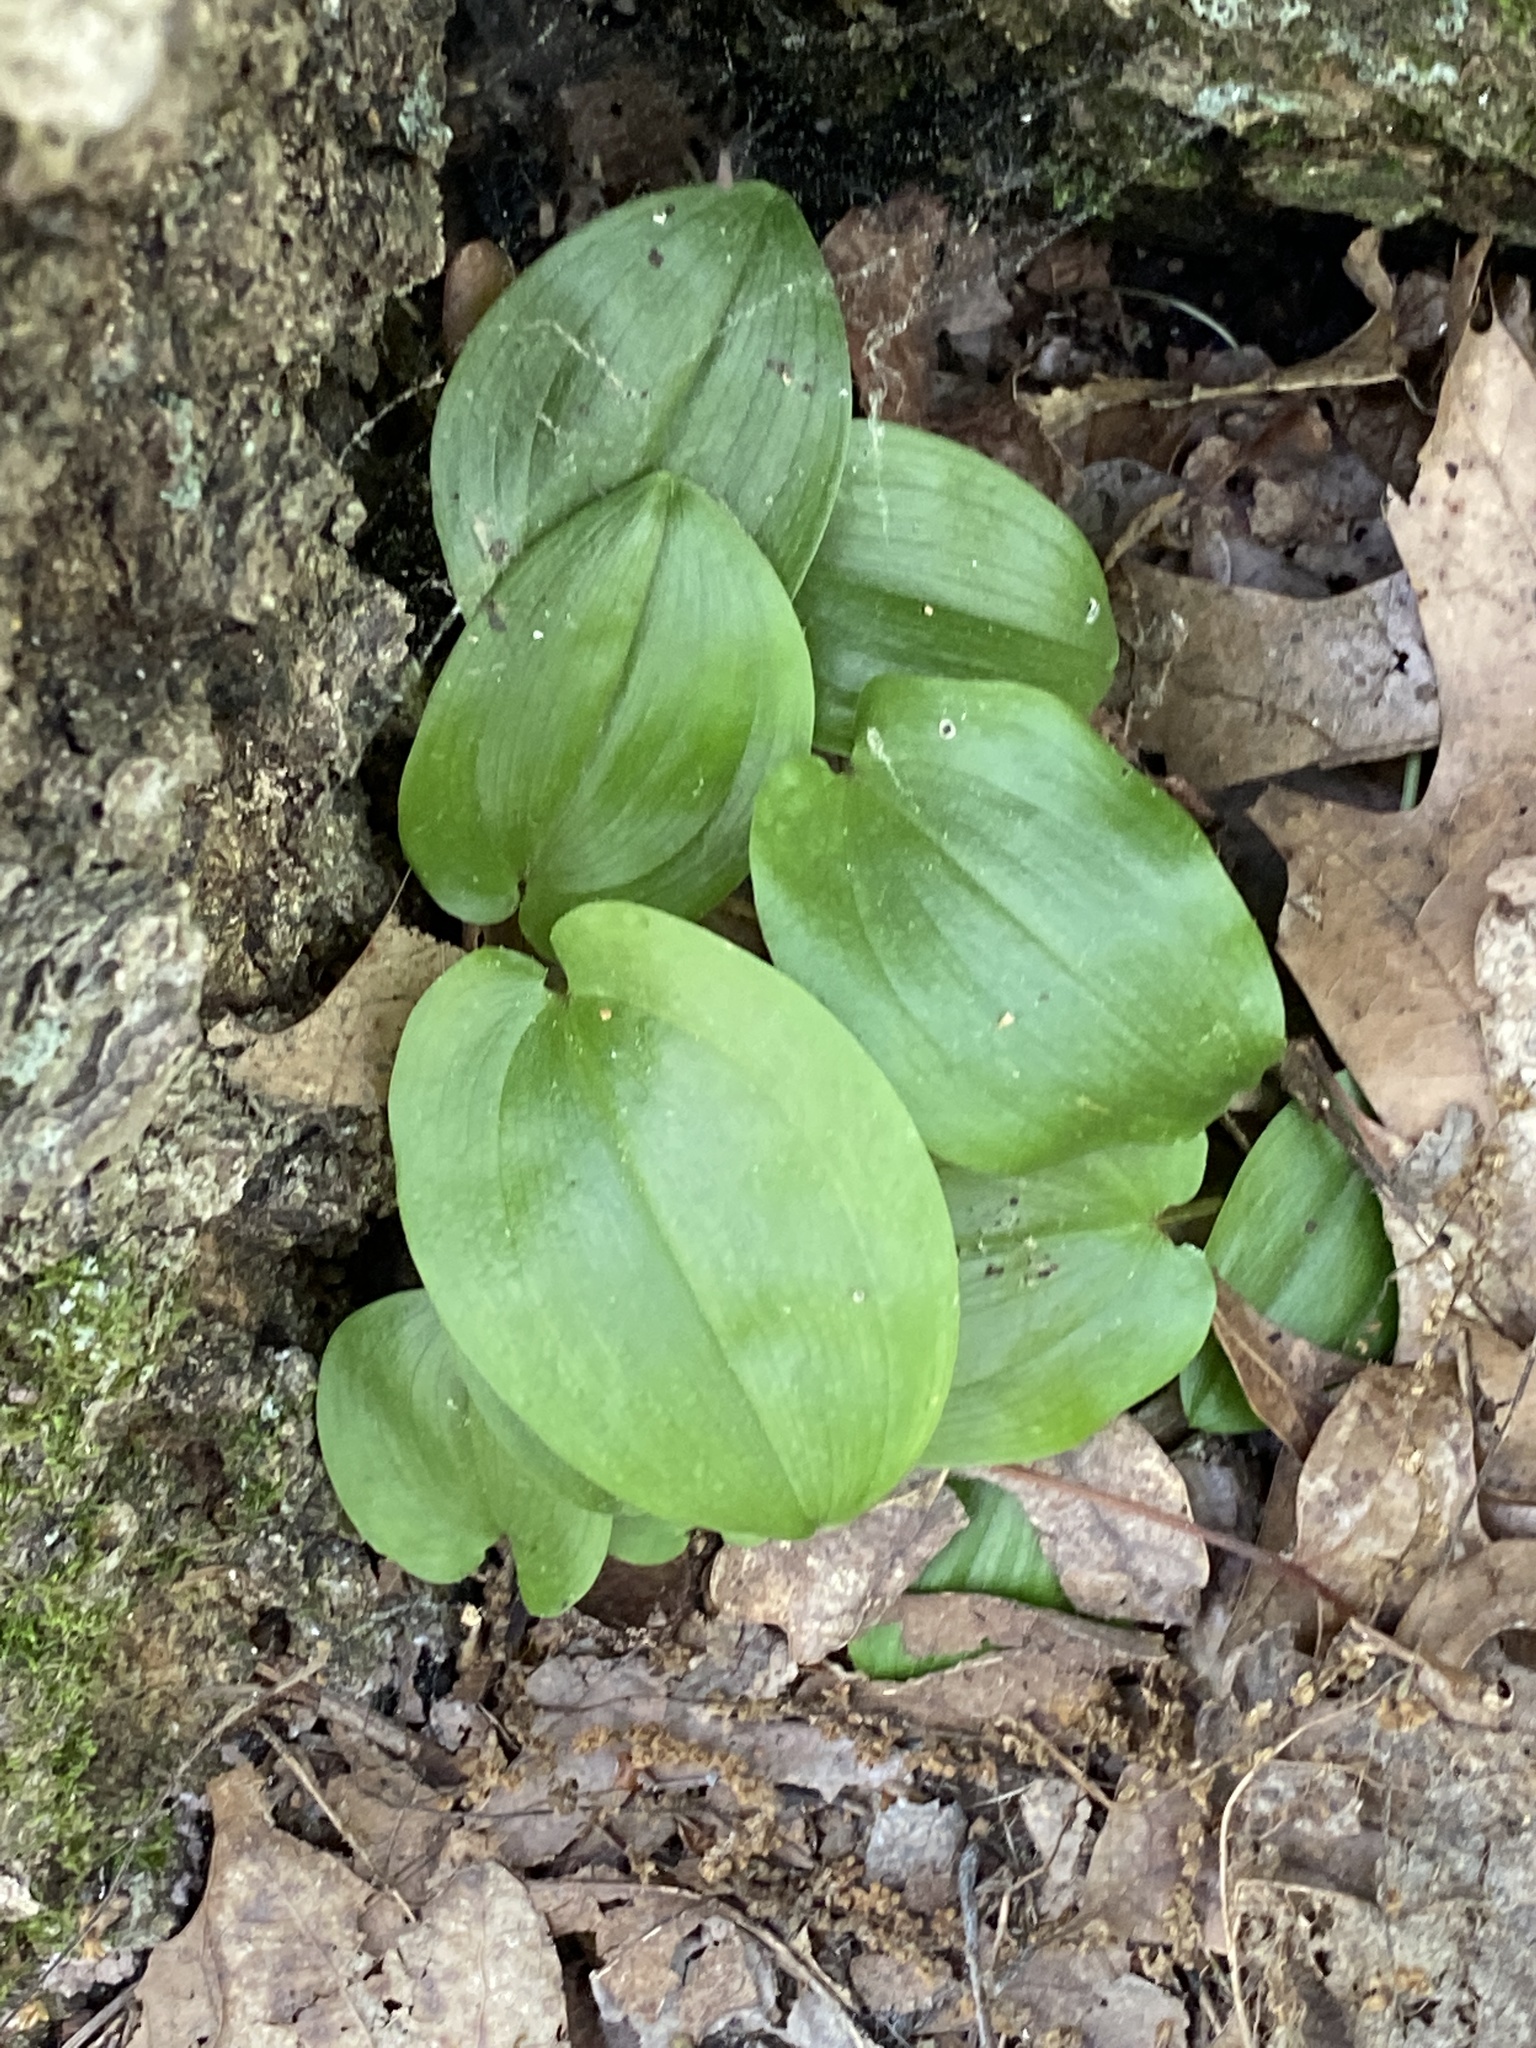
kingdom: Plantae
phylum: Tracheophyta
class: Liliopsida
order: Asparagales
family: Asparagaceae
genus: Maianthemum
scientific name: Maianthemum canadense
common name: False lily-of-the-valley
